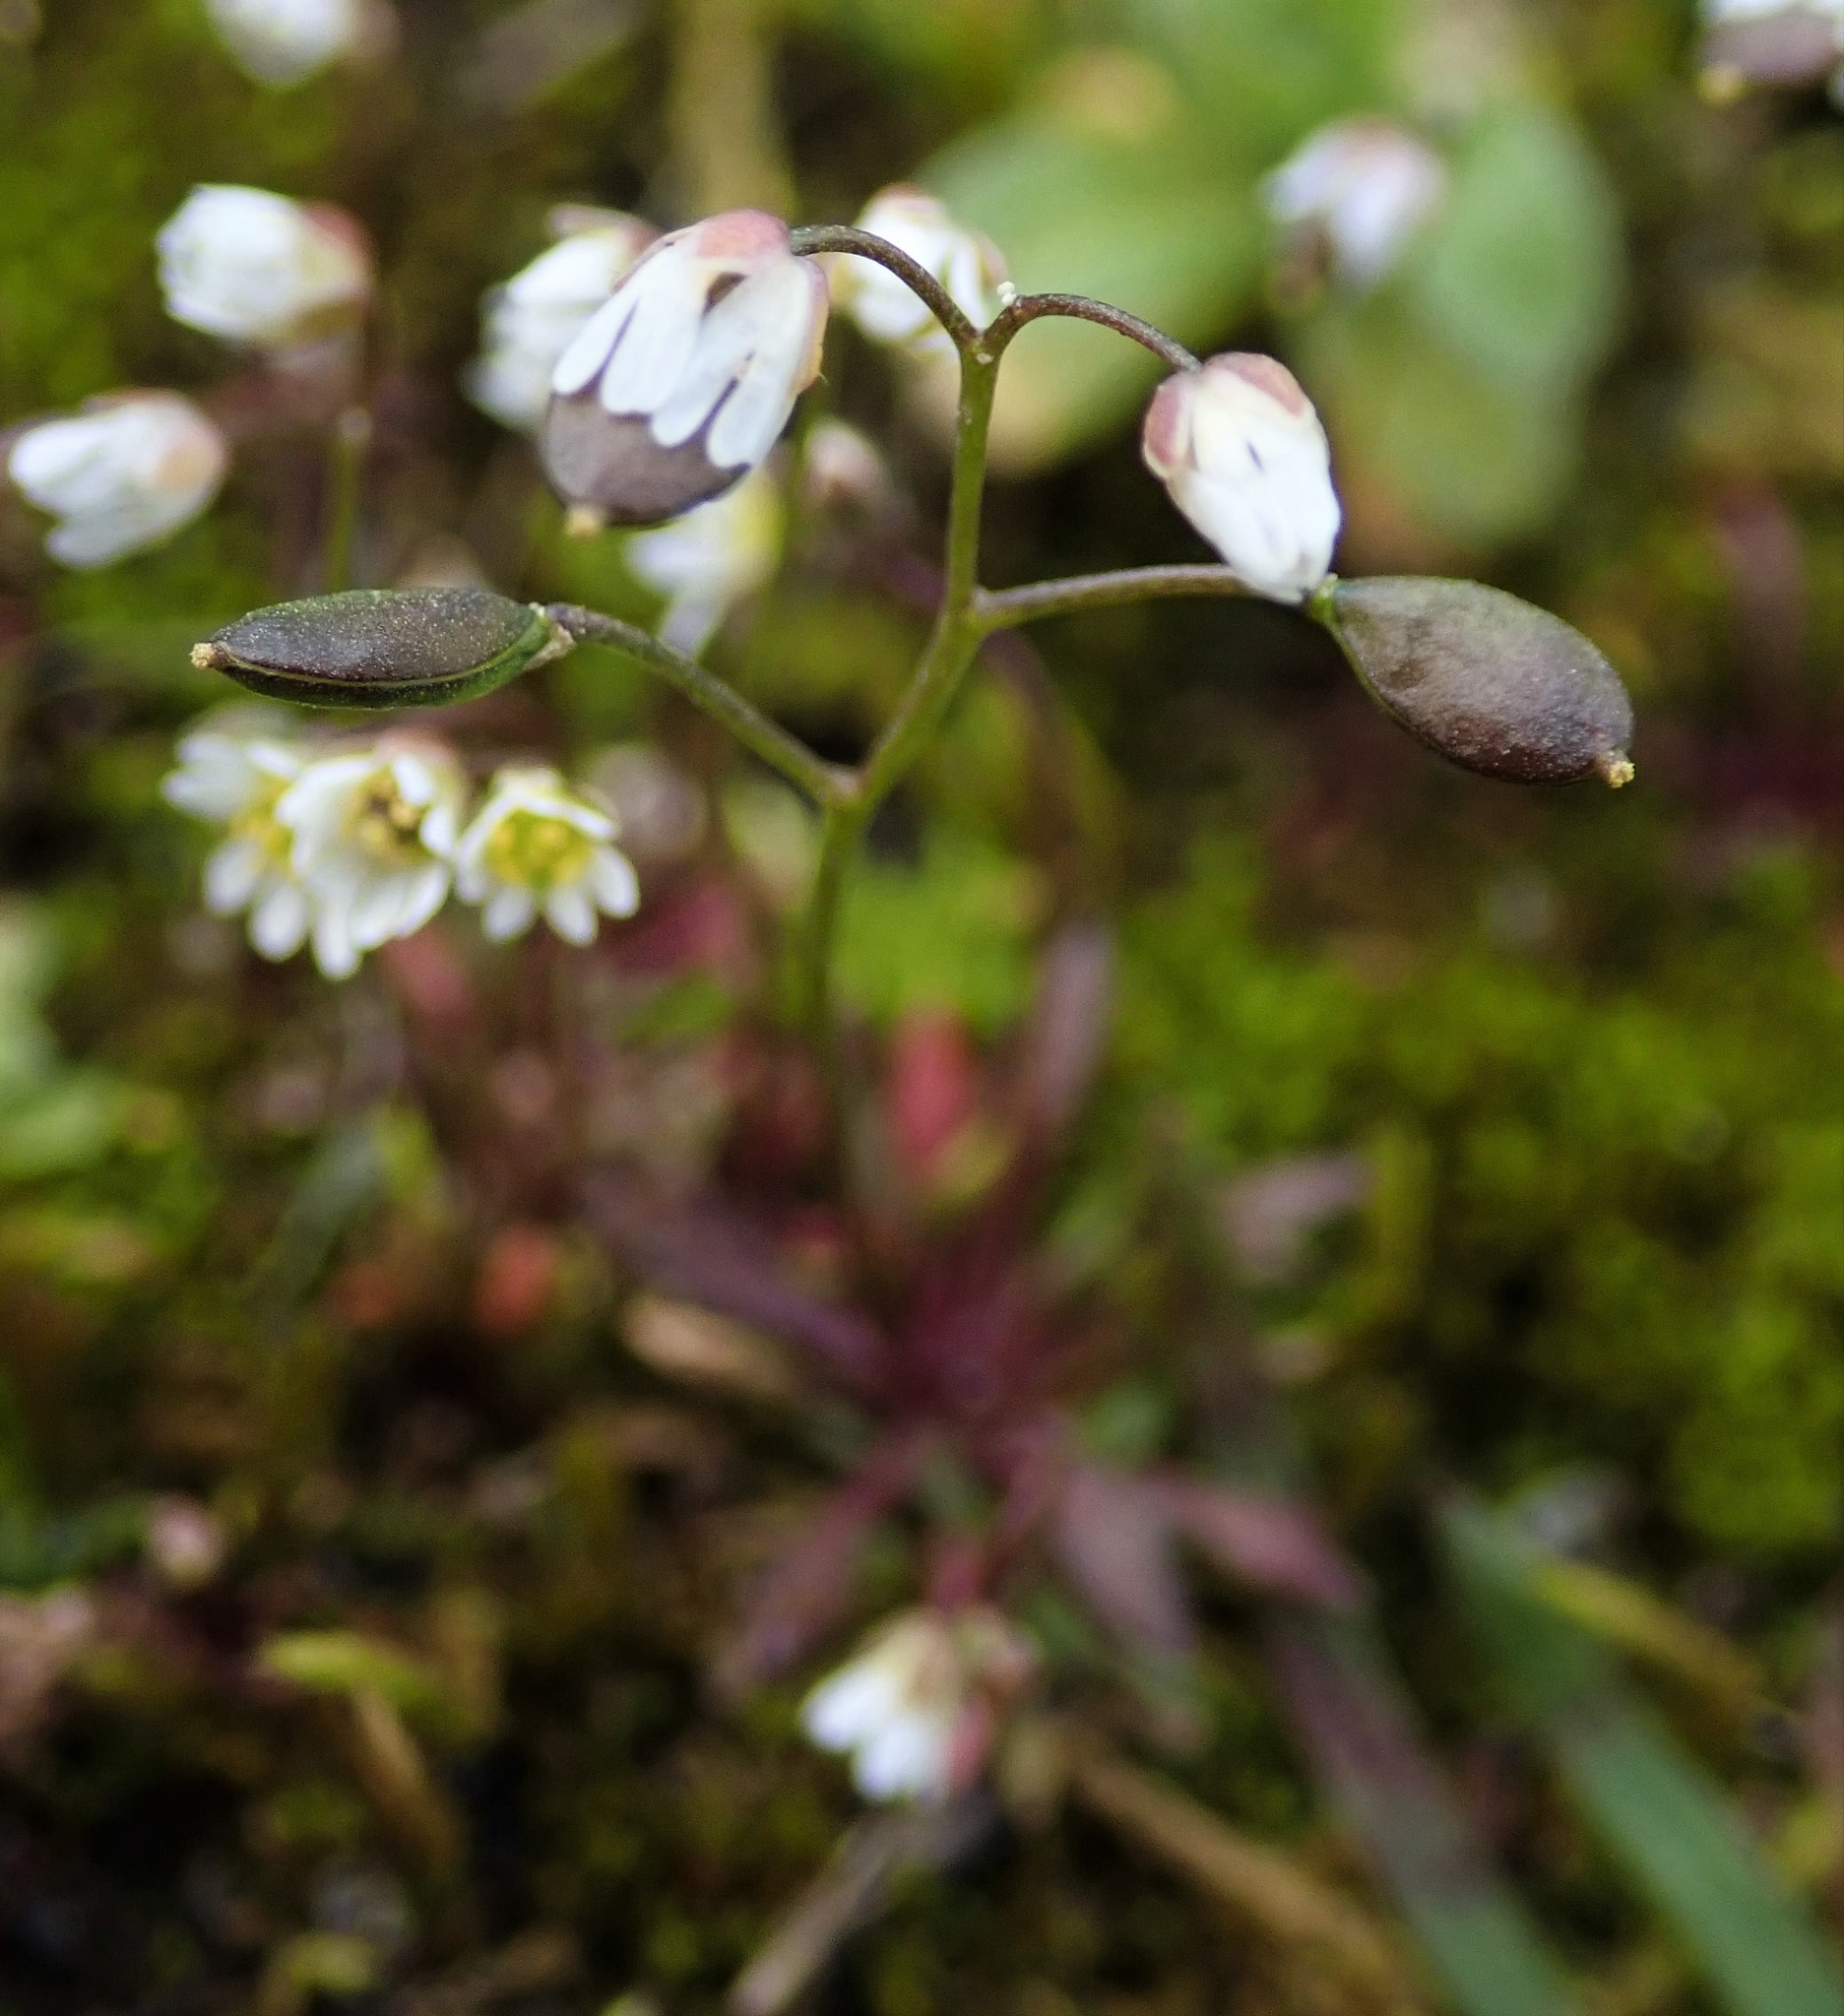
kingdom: Plantae
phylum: Tracheophyta
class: Magnoliopsida
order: Brassicales
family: Brassicaceae
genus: Draba
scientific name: Draba verna
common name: Spring draba
